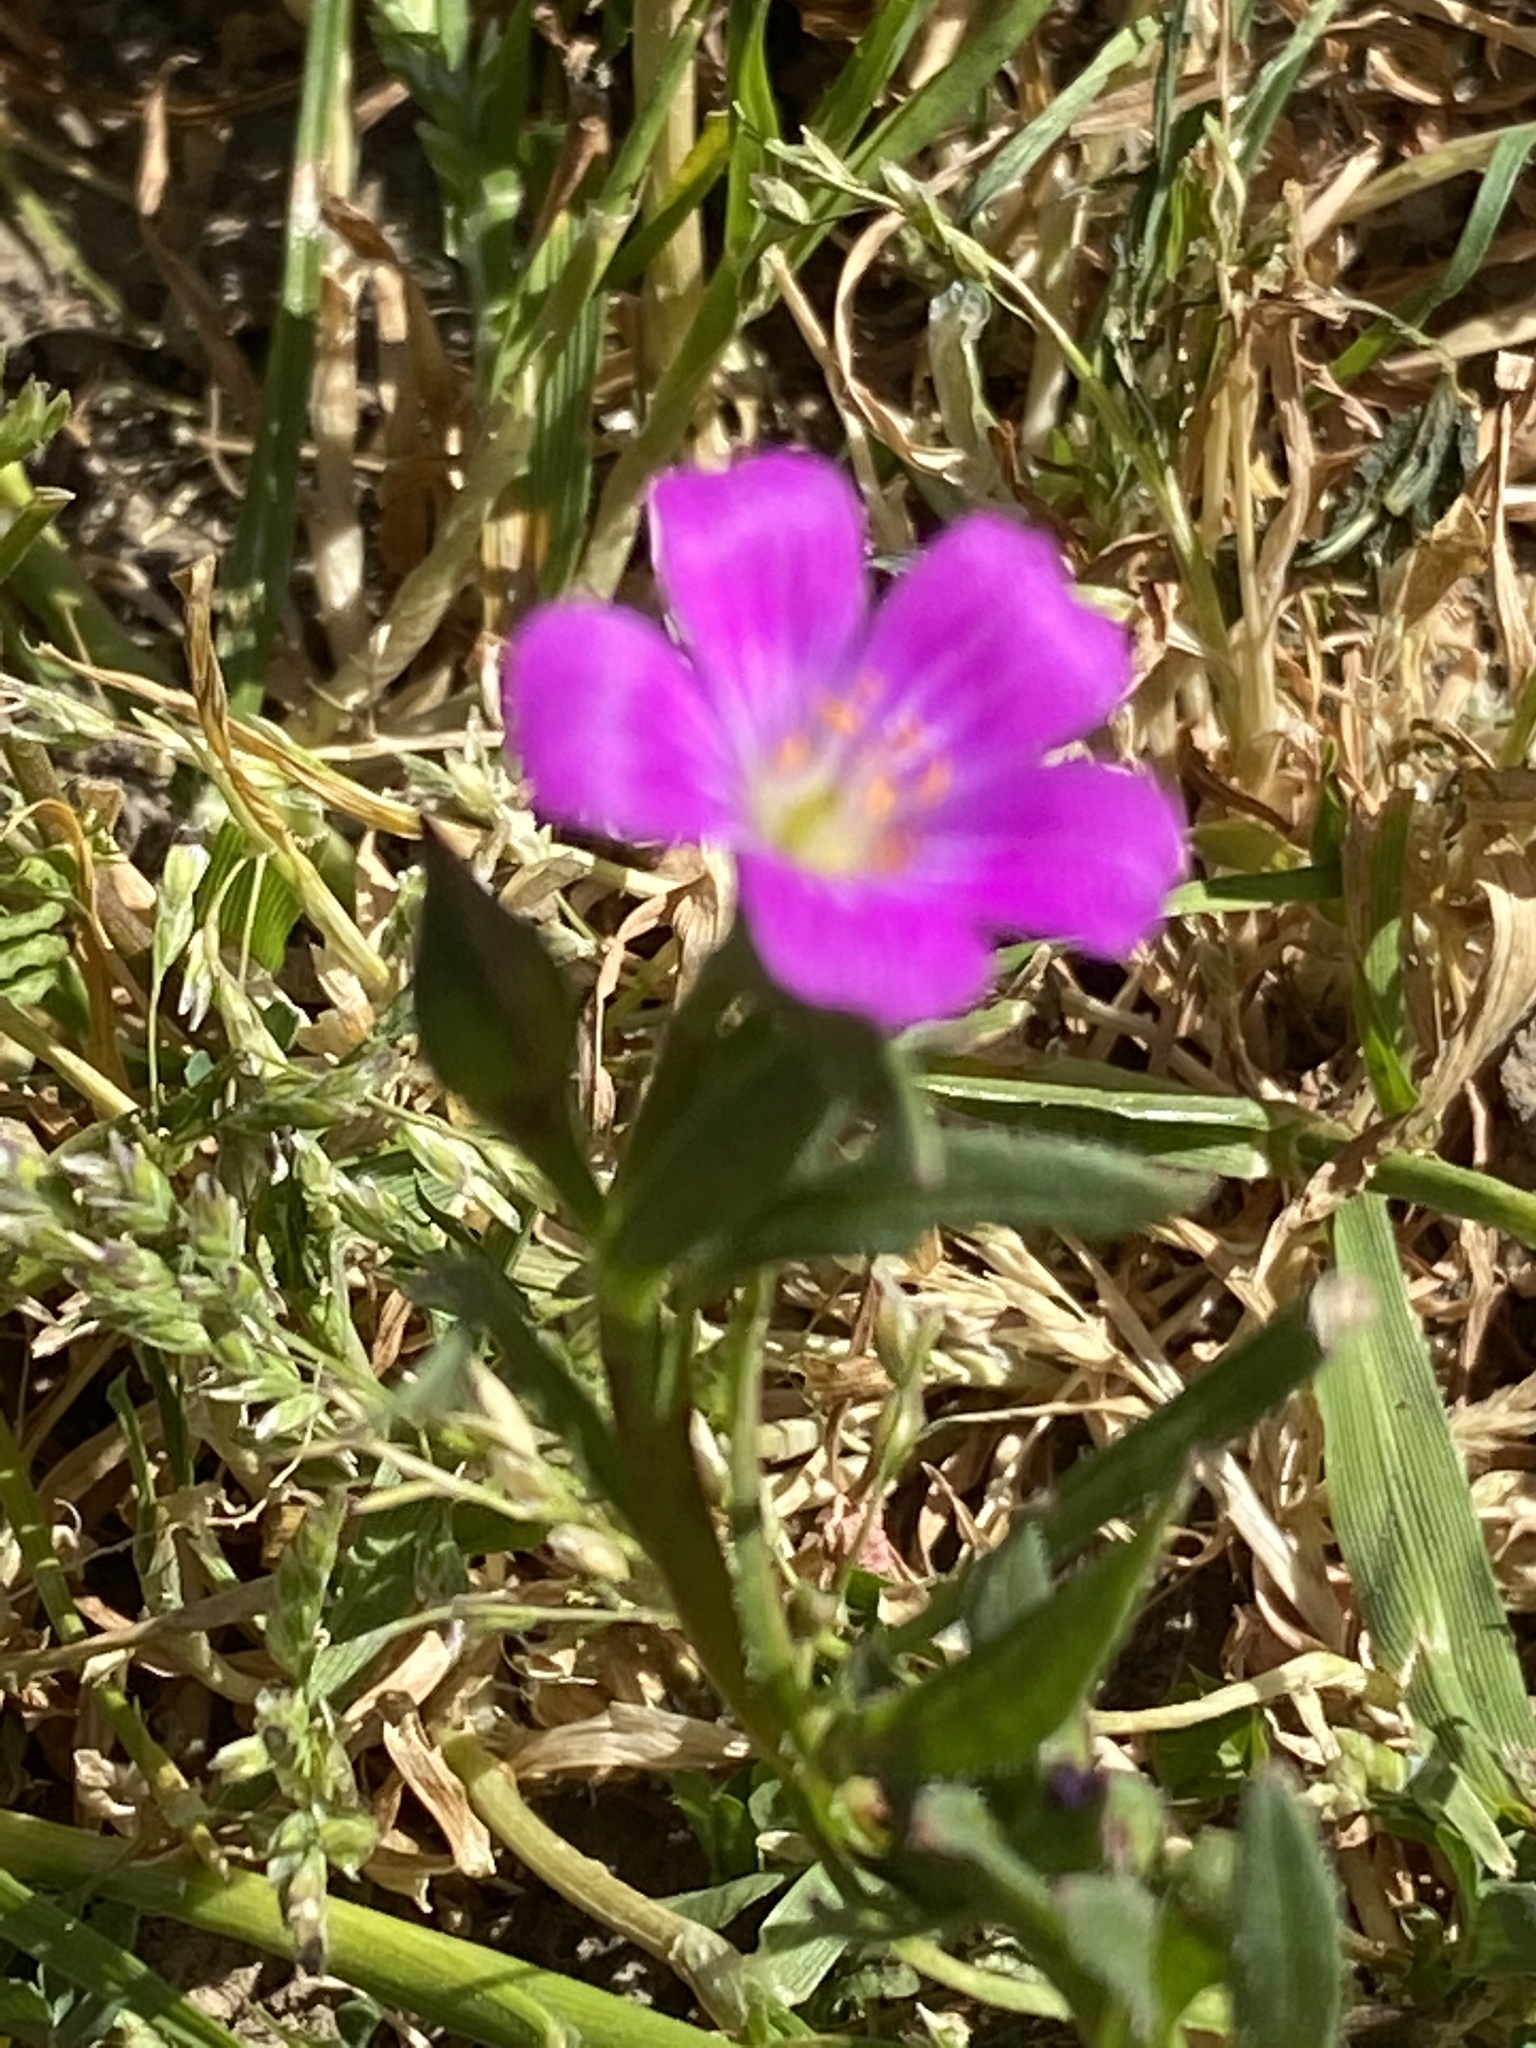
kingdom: Plantae
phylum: Tracheophyta
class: Magnoliopsida
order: Caryophyllales
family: Montiaceae
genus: Calandrinia
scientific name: Calandrinia menziesii
